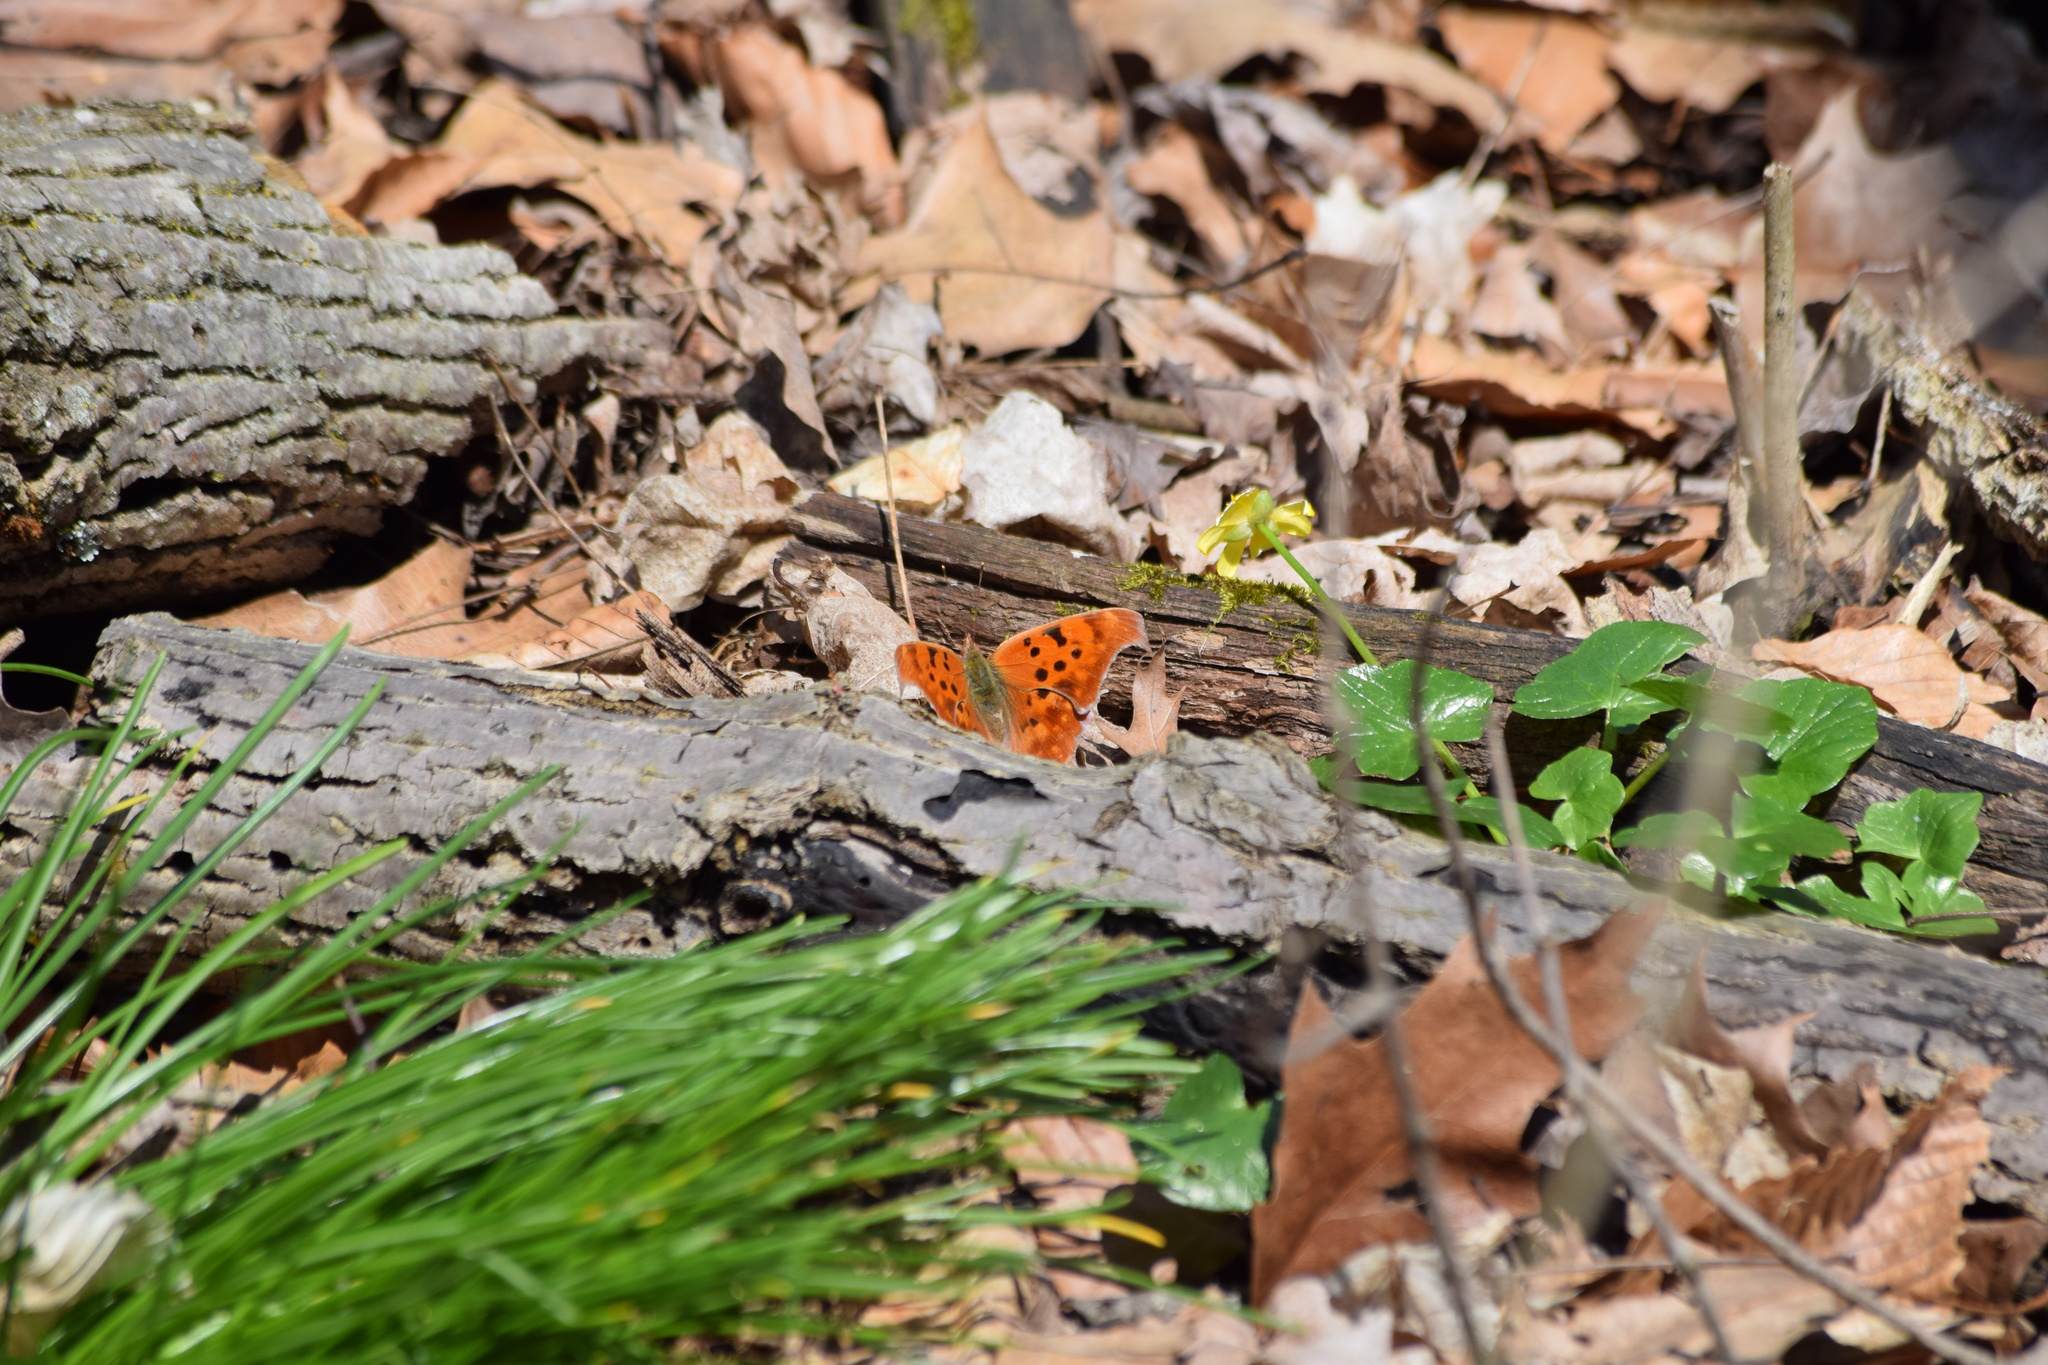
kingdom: Animalia
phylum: Arthropoda
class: Insecta
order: Lepidoptera
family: Nymphalidae
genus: Polygonia
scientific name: Polygonia interrogationis
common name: Question mark
